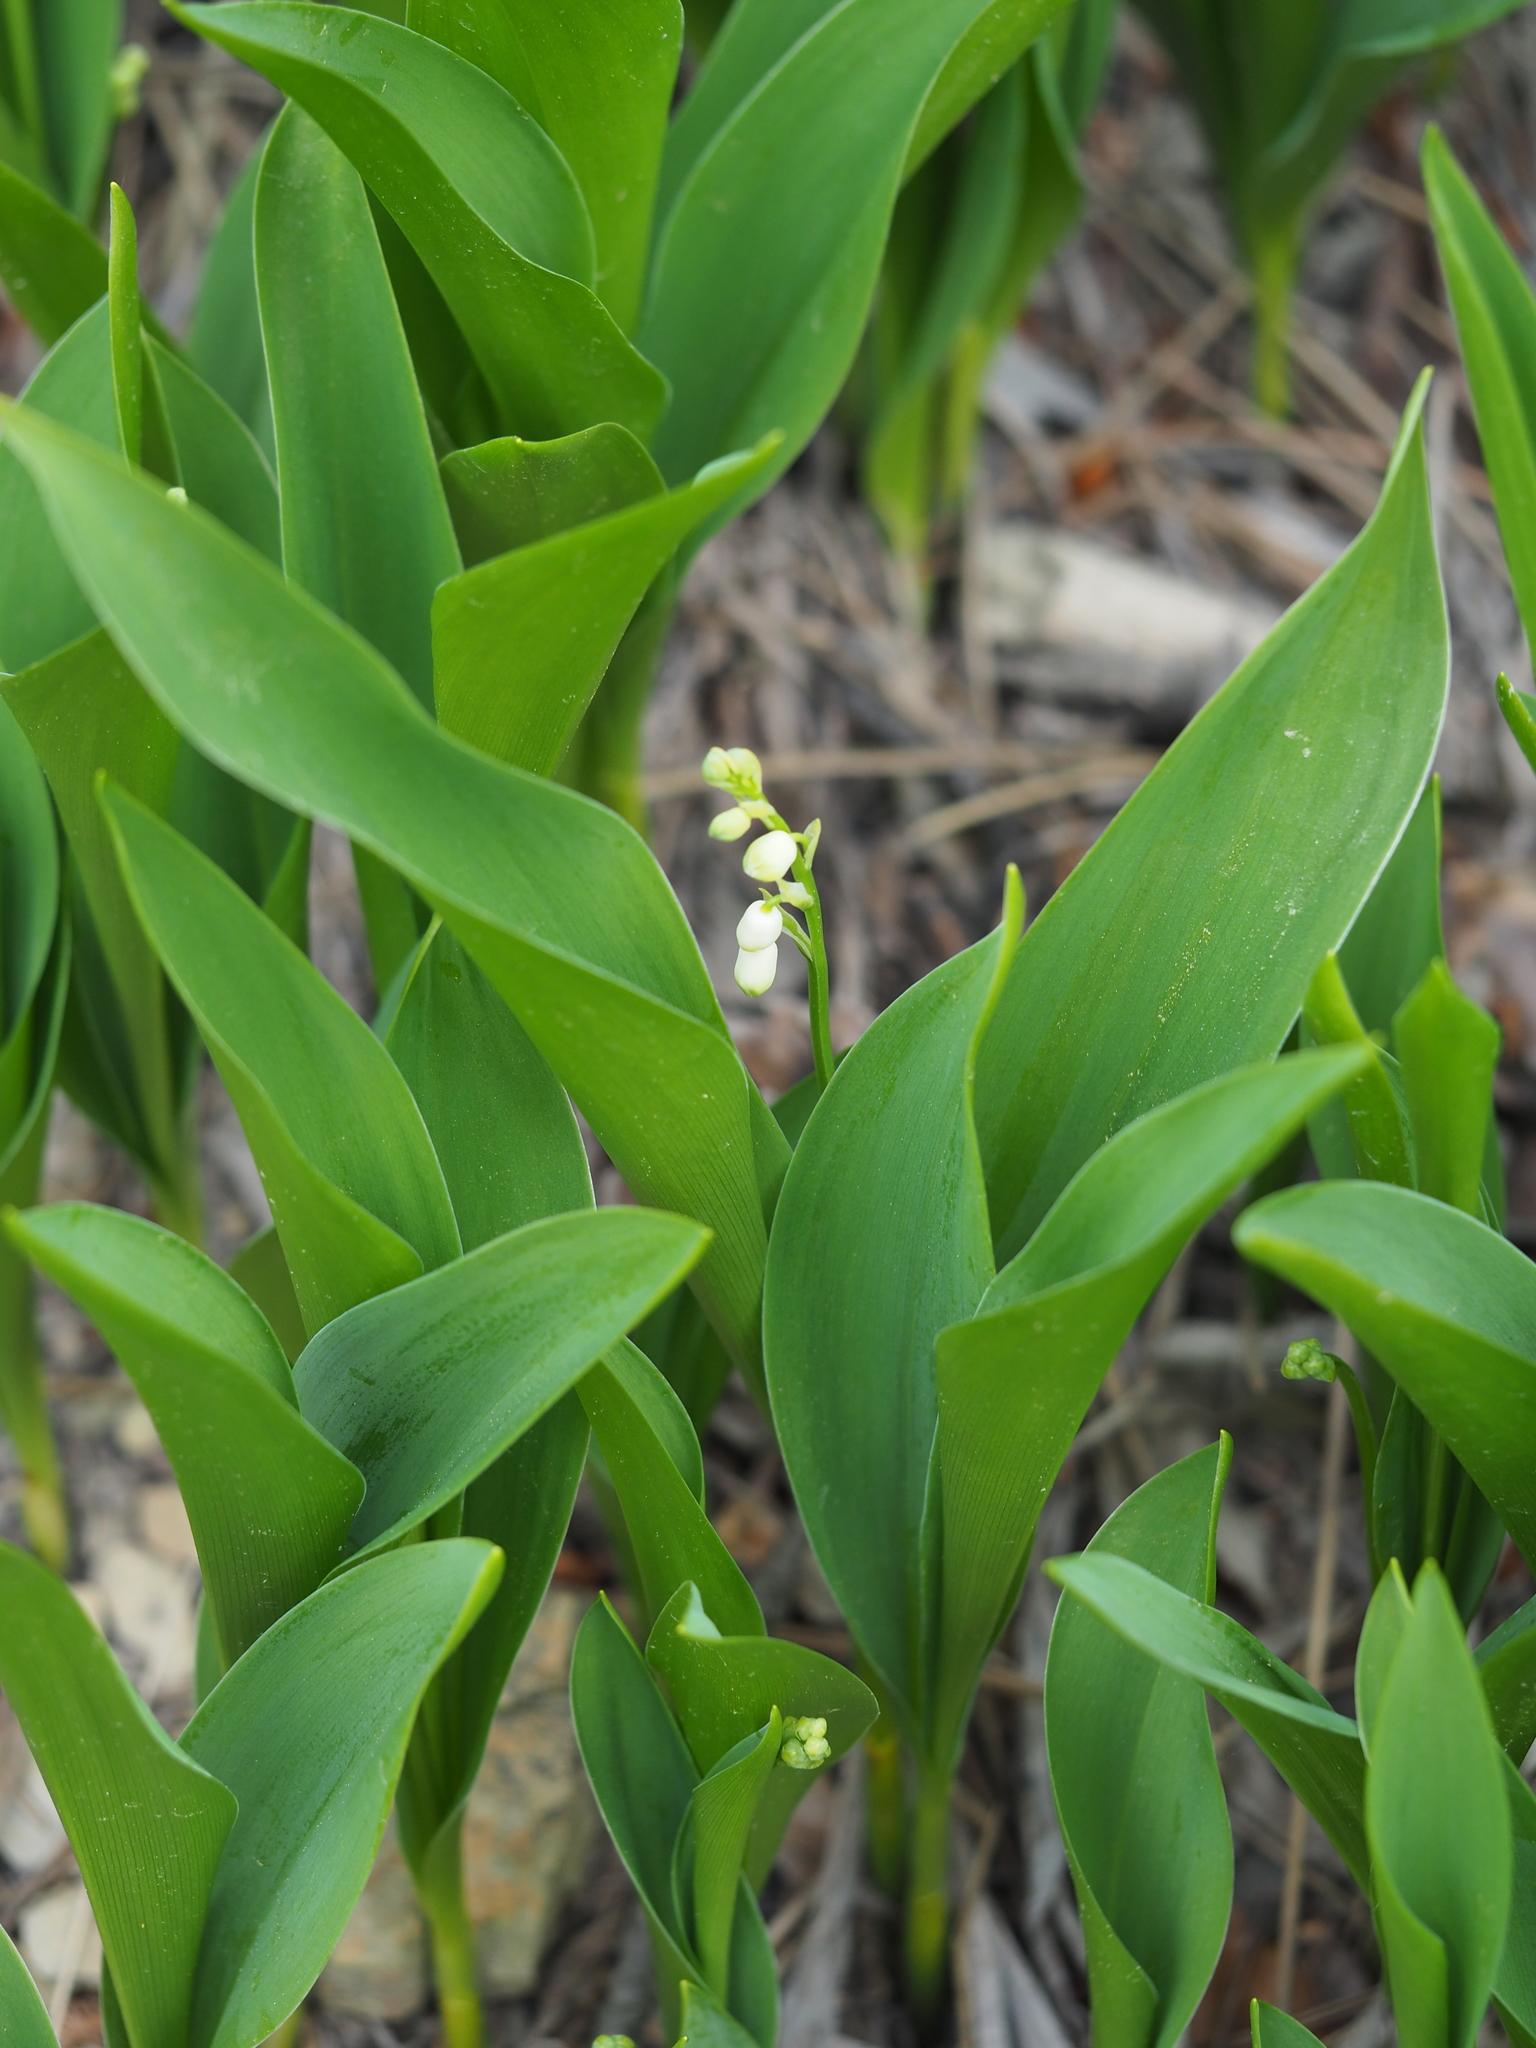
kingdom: Plantae
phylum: Tracheophyta
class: Liliopsida
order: Asparagales
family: Asparagaceae
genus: Convallaria
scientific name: Convallaria majalis
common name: Lily-of-the-valley
